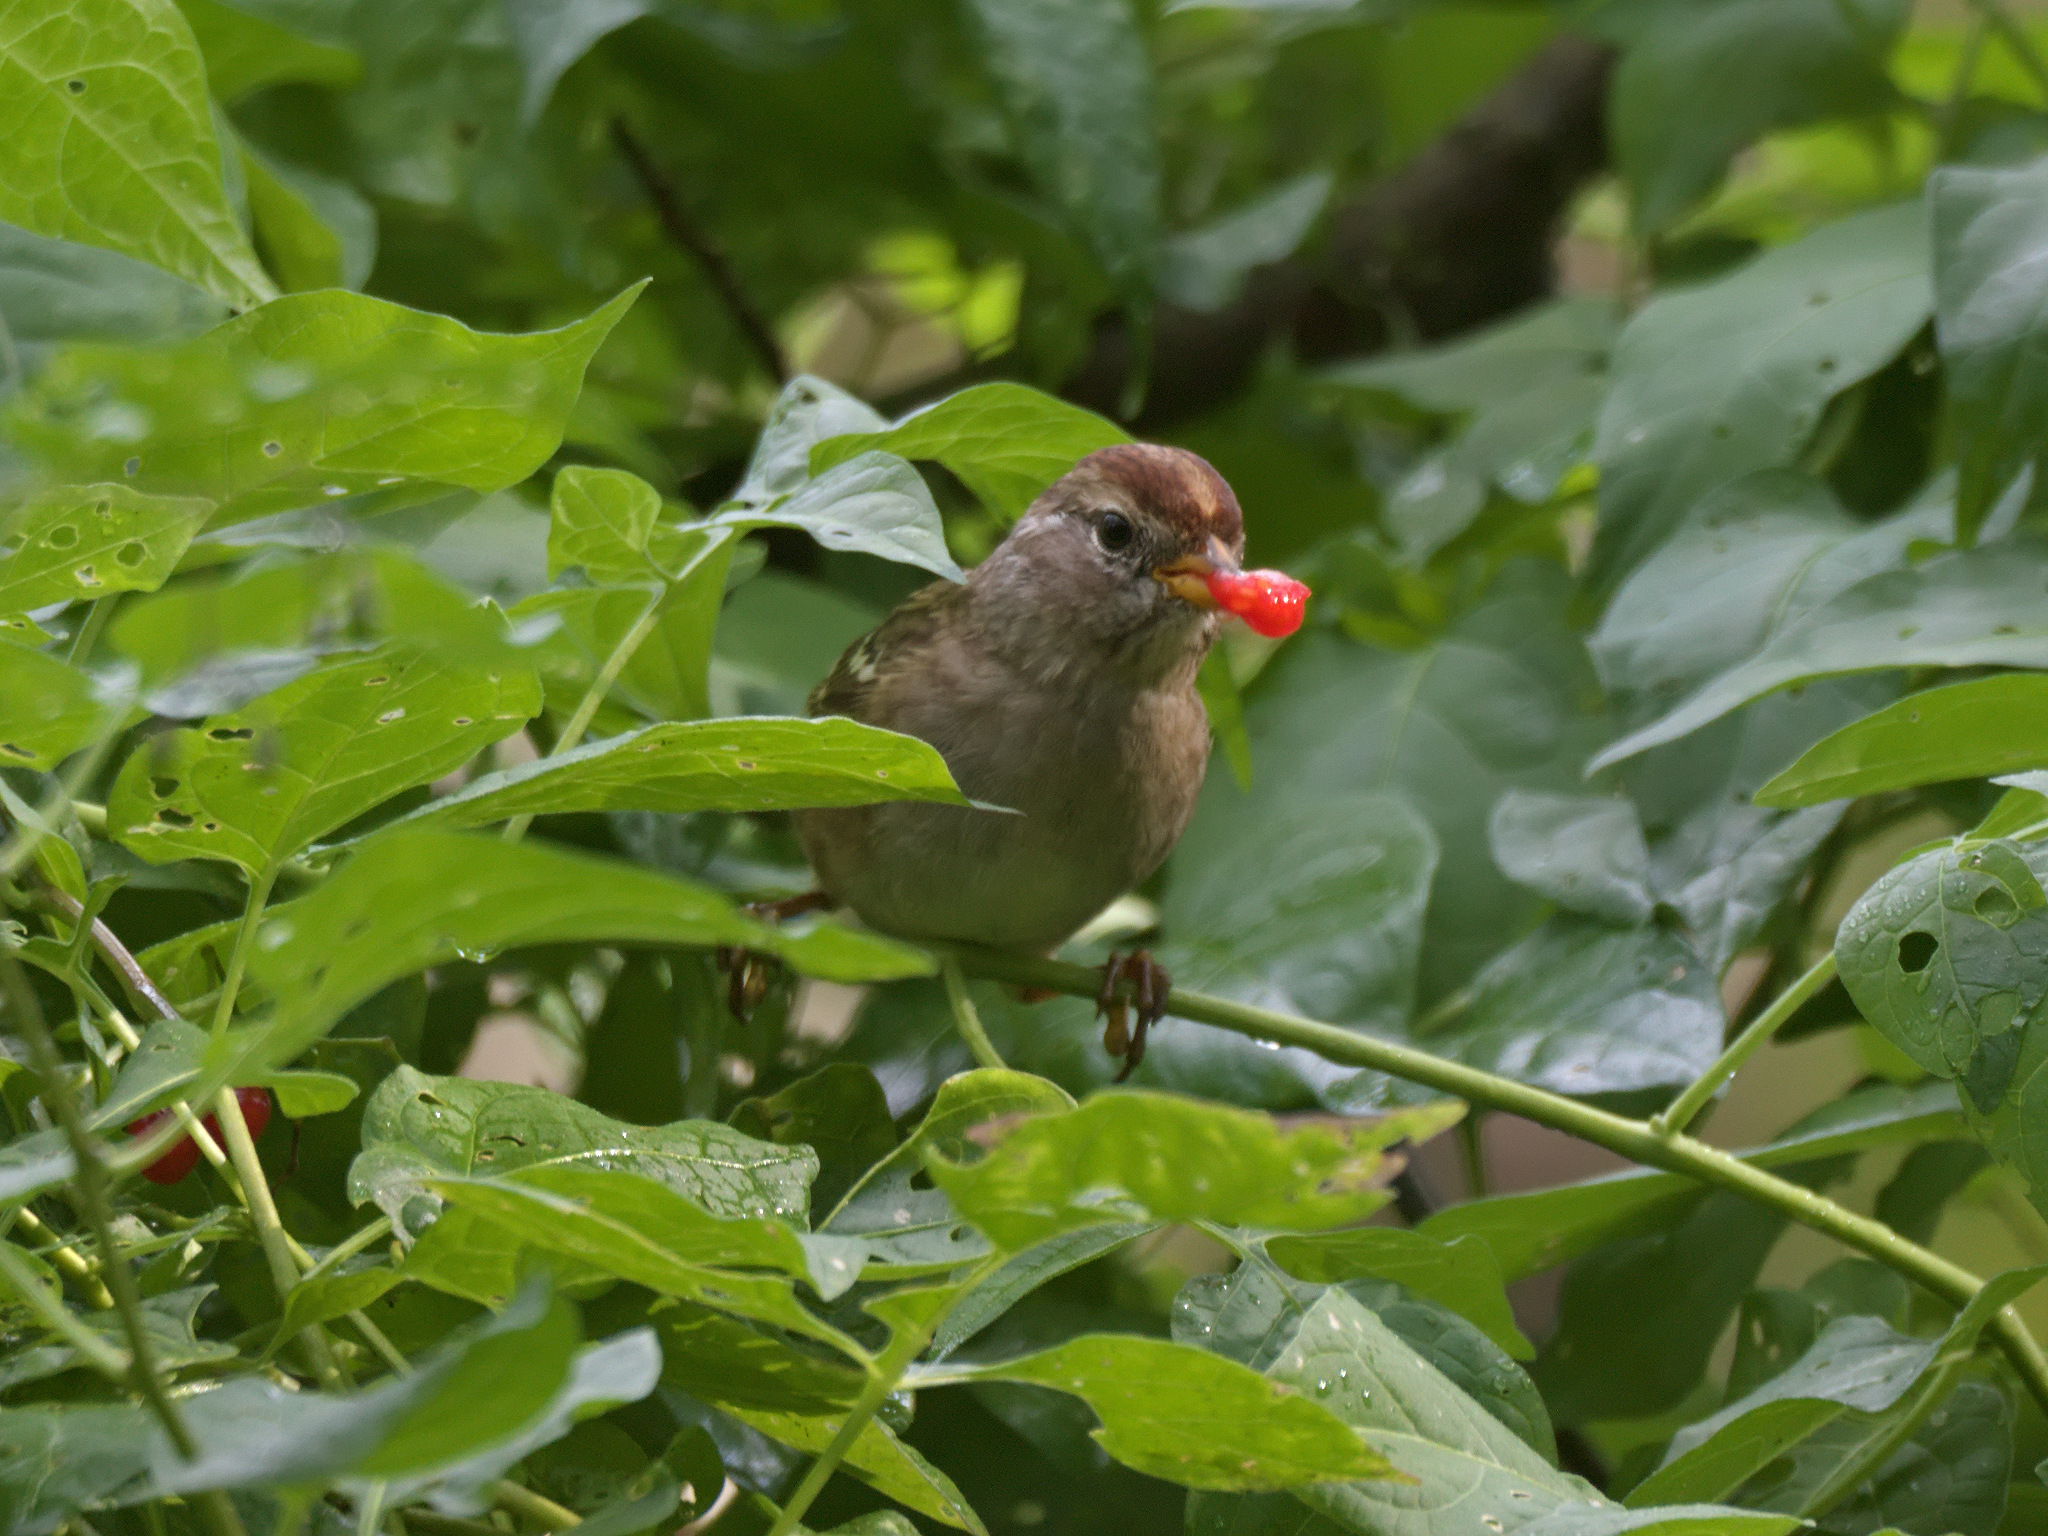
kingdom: Animalia
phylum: Chordata
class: Aves
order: Passeriformes
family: Passerellidae
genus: Zonotrichia
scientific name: Zonotrichia leucophrys
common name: White-crowned sparrow
